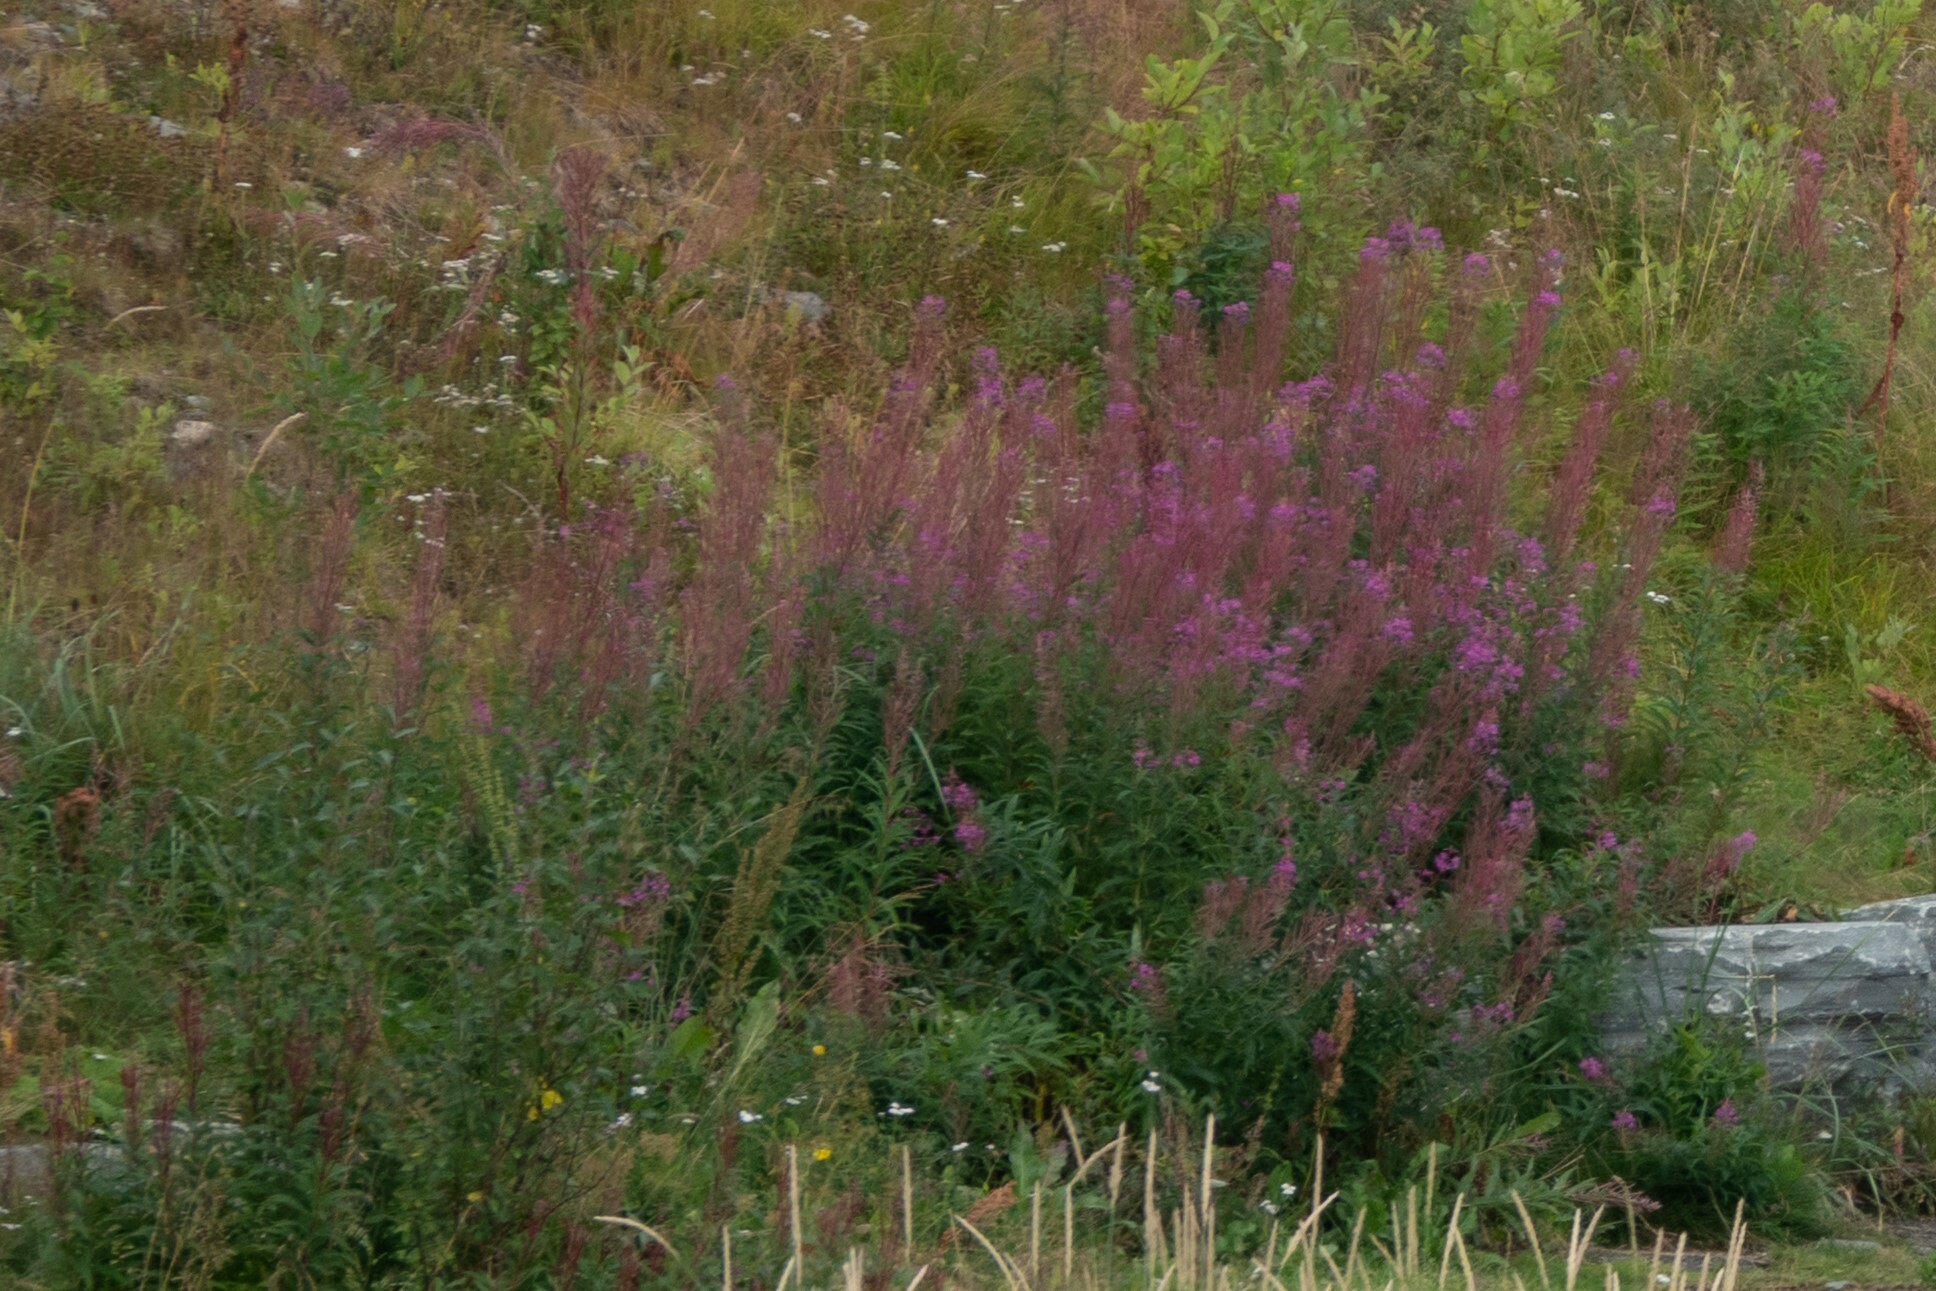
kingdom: Plantae
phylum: Tracheophyta
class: Magnoliopsida
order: Myrtales
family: Onagraceae
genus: Chamaenerion
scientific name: Chamaenerion angustifolium
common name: Fireweed
